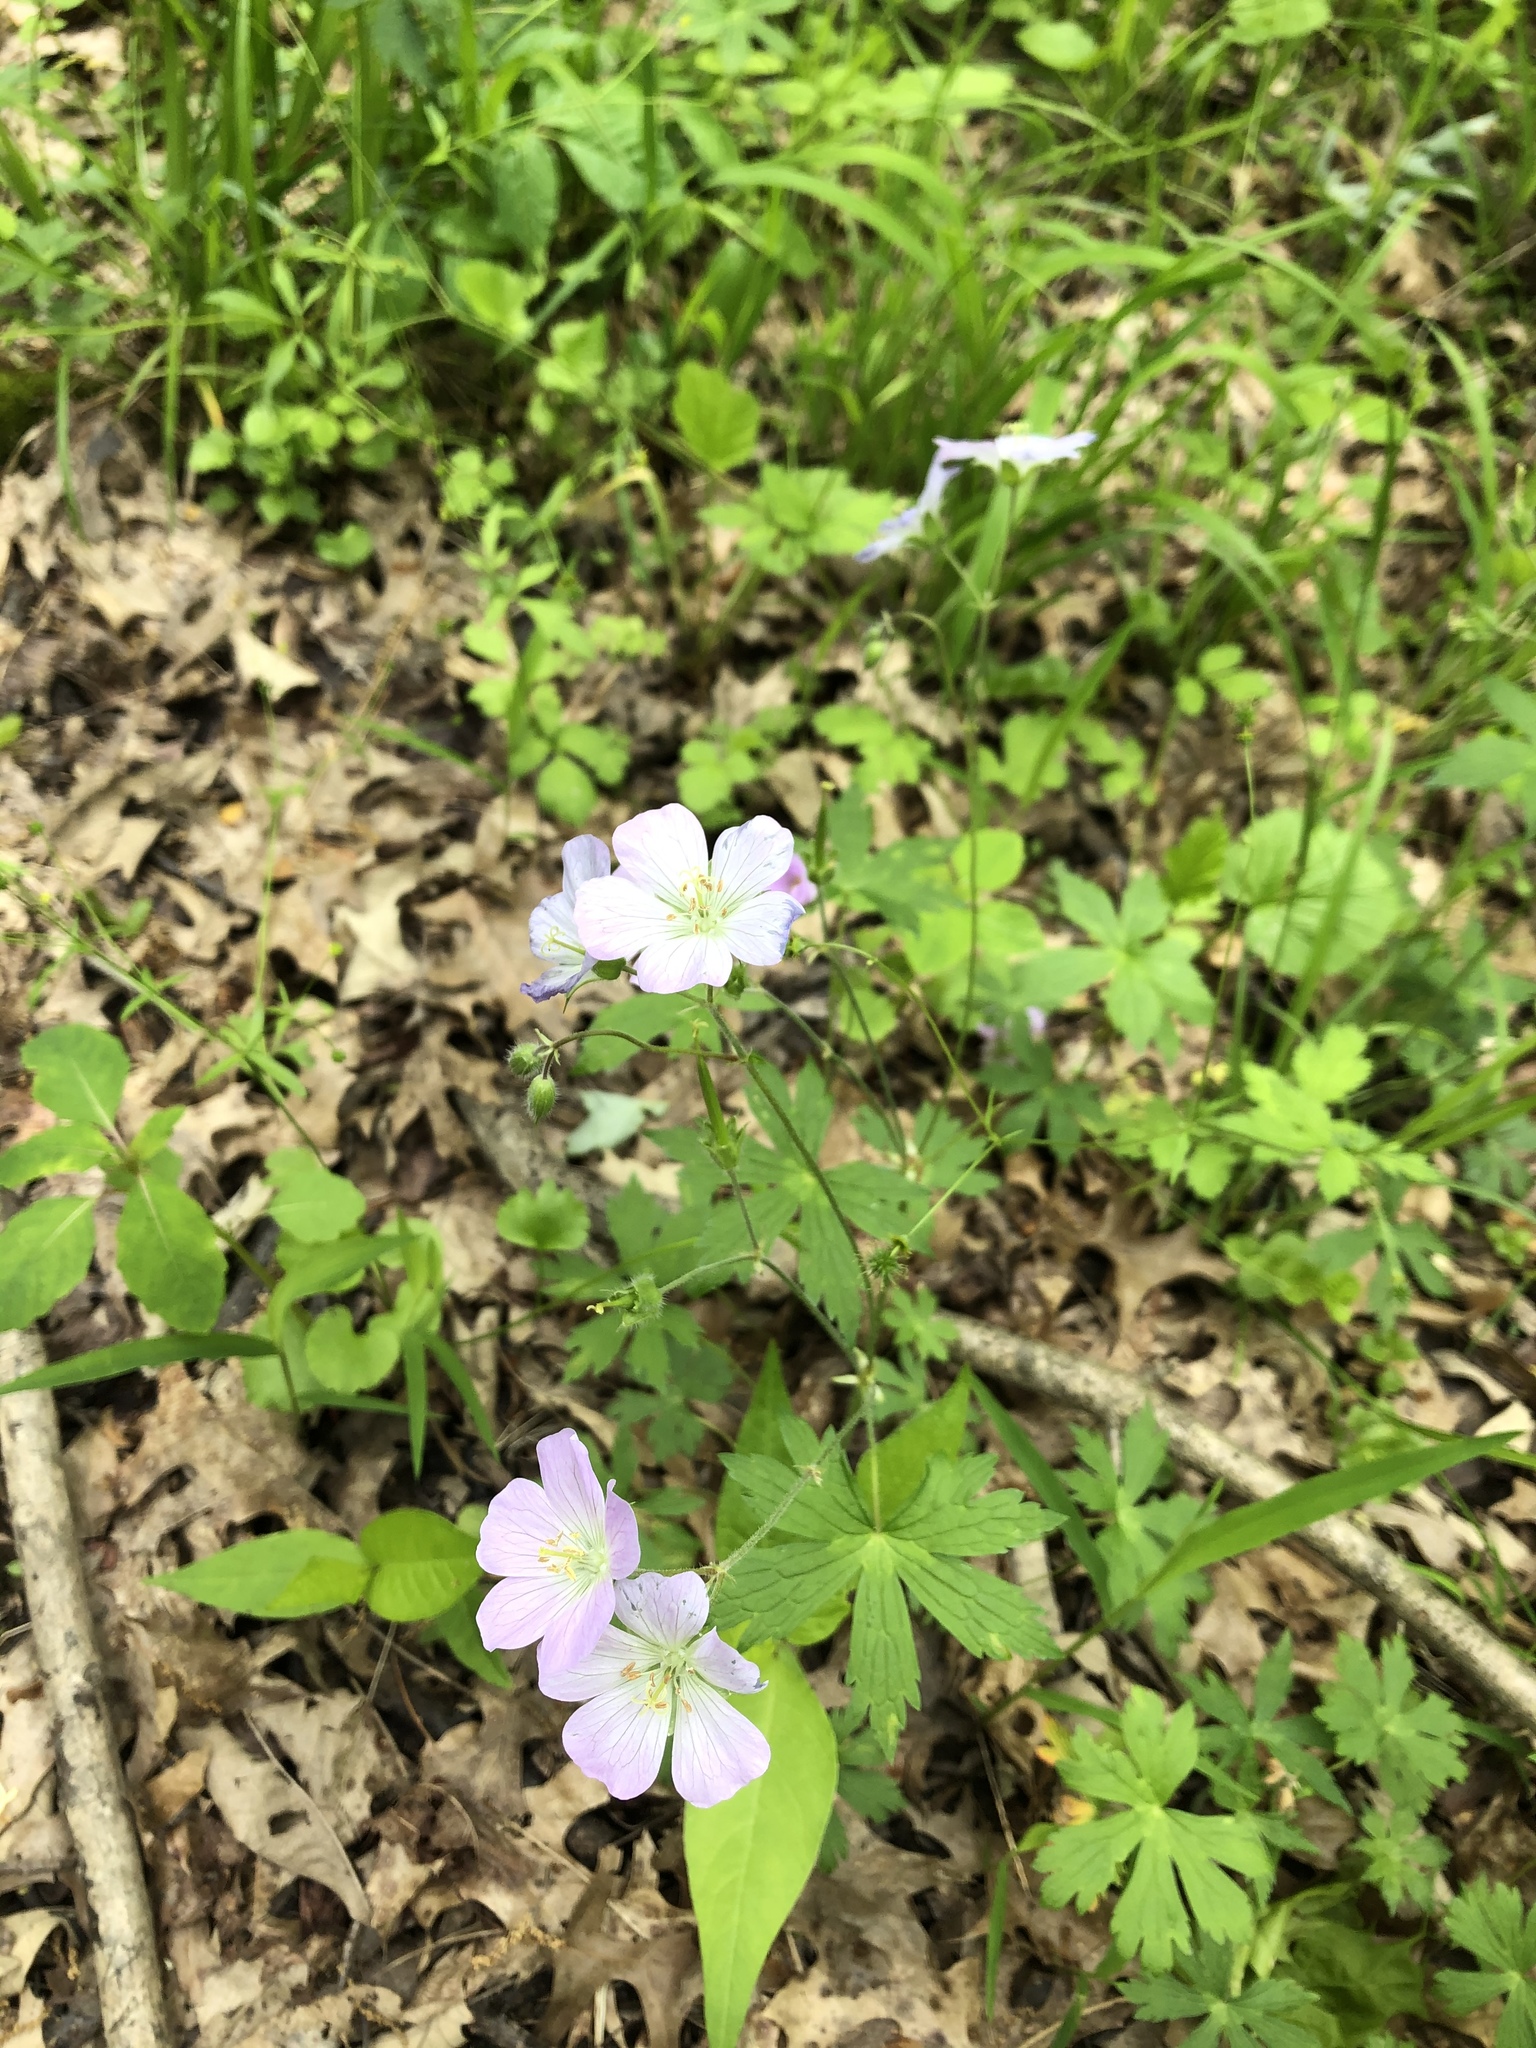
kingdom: Plantae
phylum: Tracheophyta
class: Magnoliopsida
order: Geraniales
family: Geraniaceae
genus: Geranium
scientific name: Geranium maculatum
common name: Spotted geranium
